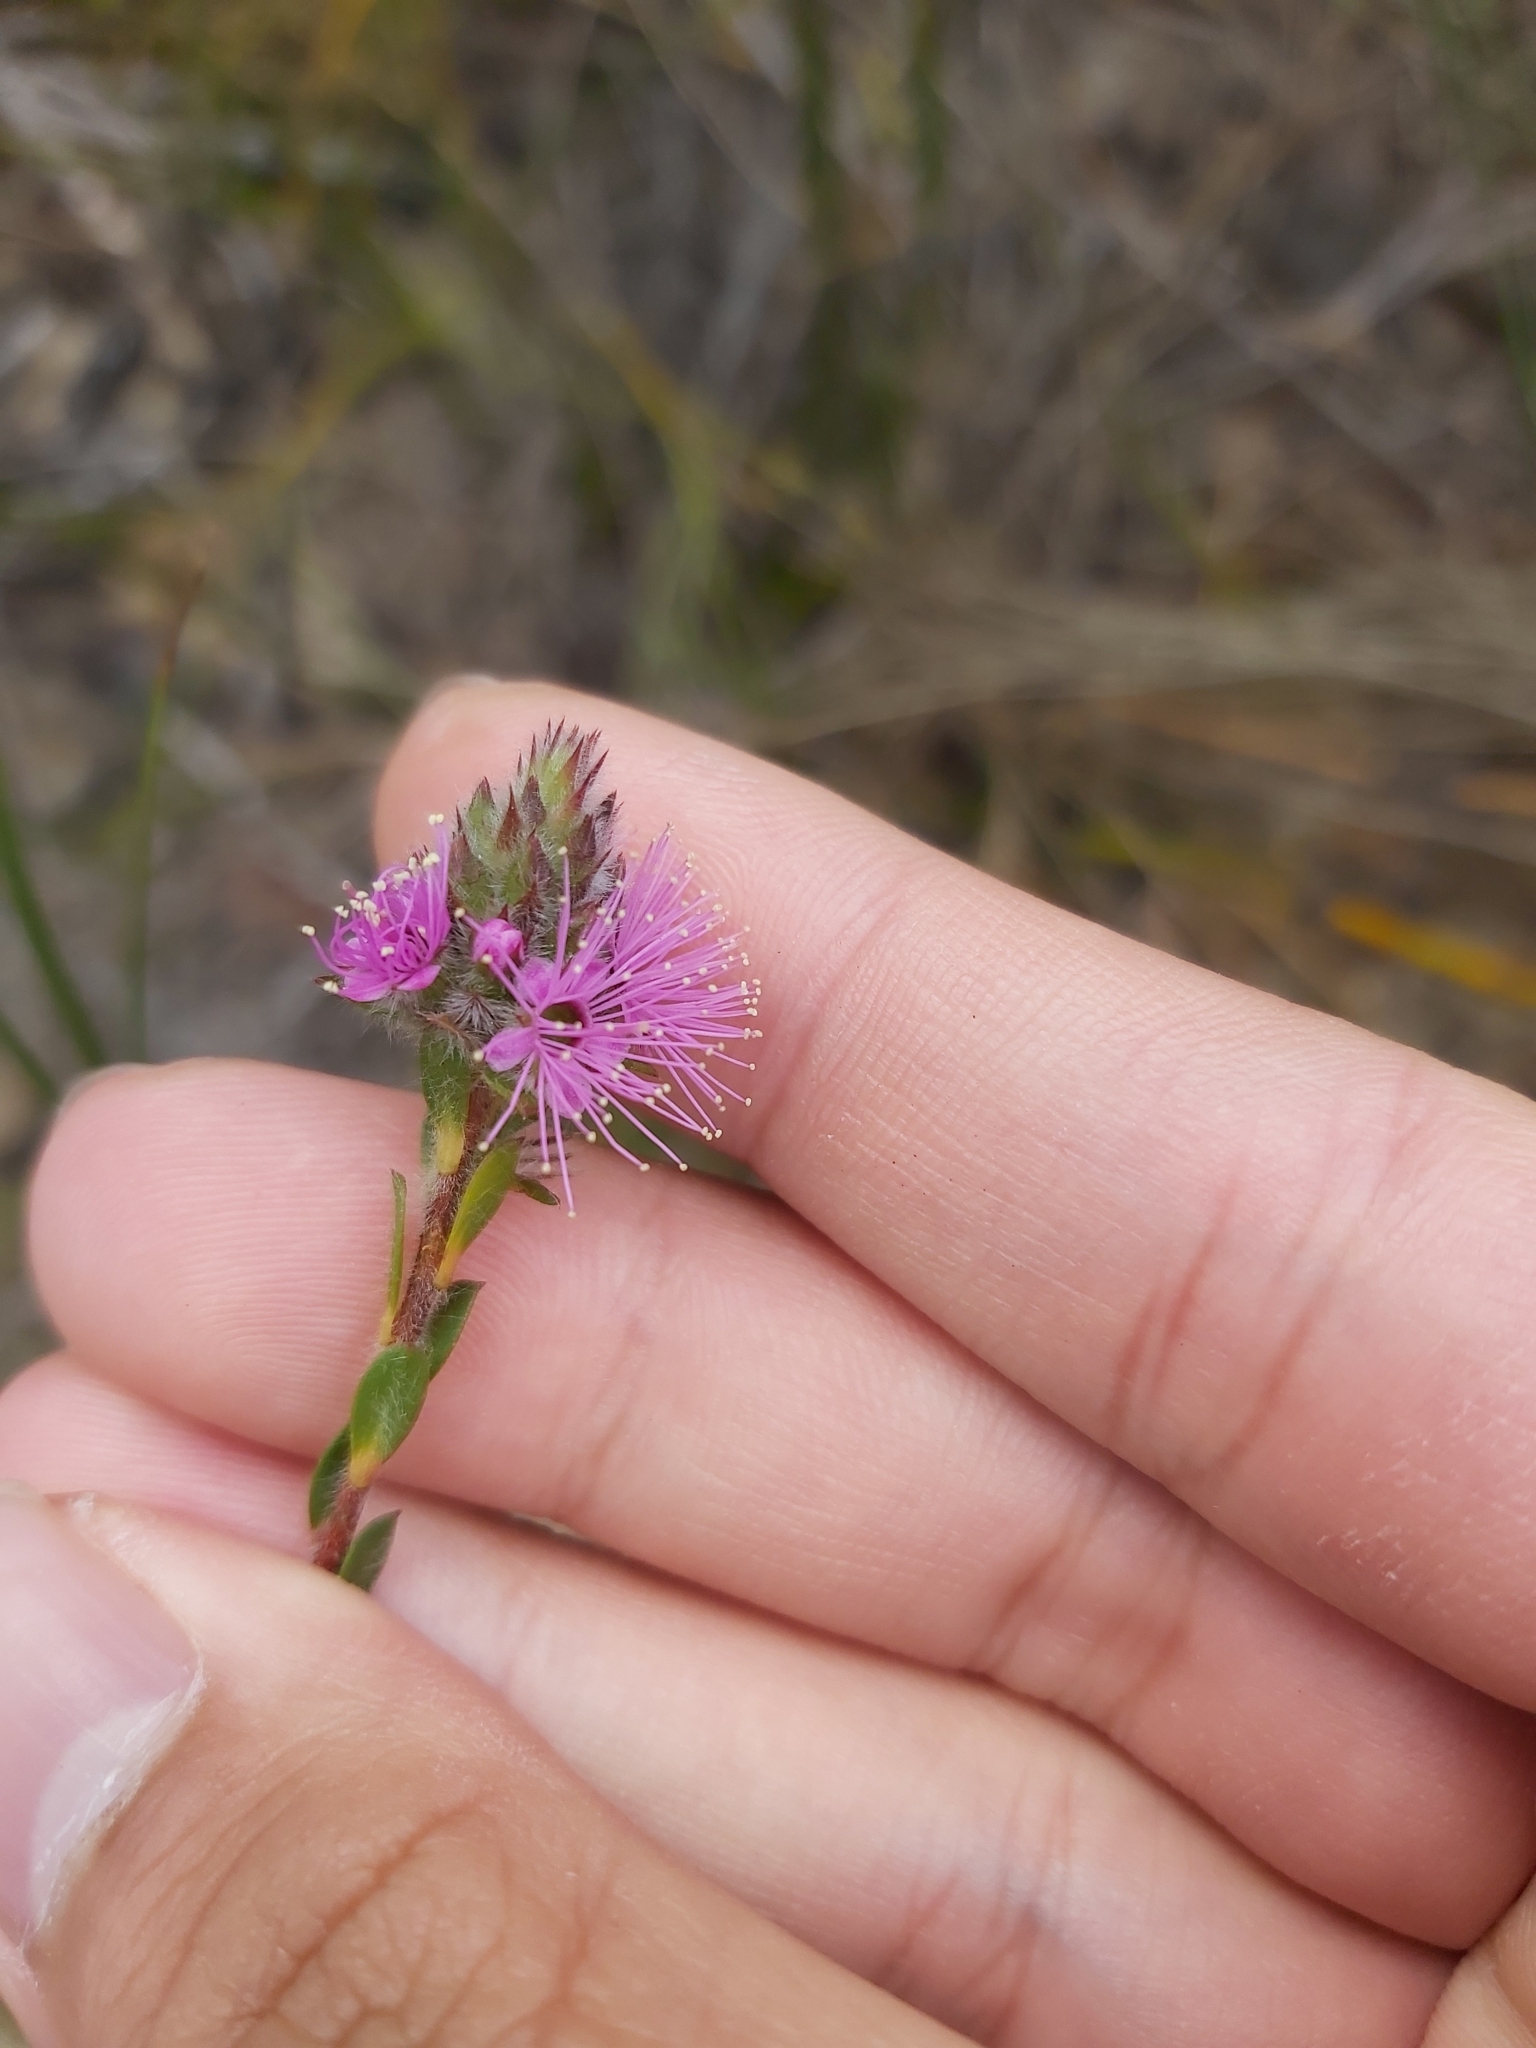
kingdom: Plantae
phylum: Tracheophyta
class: Magnoliopsida
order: Myrtales
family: Myrtaceae
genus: Kunzea
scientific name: Kunzea capitata
